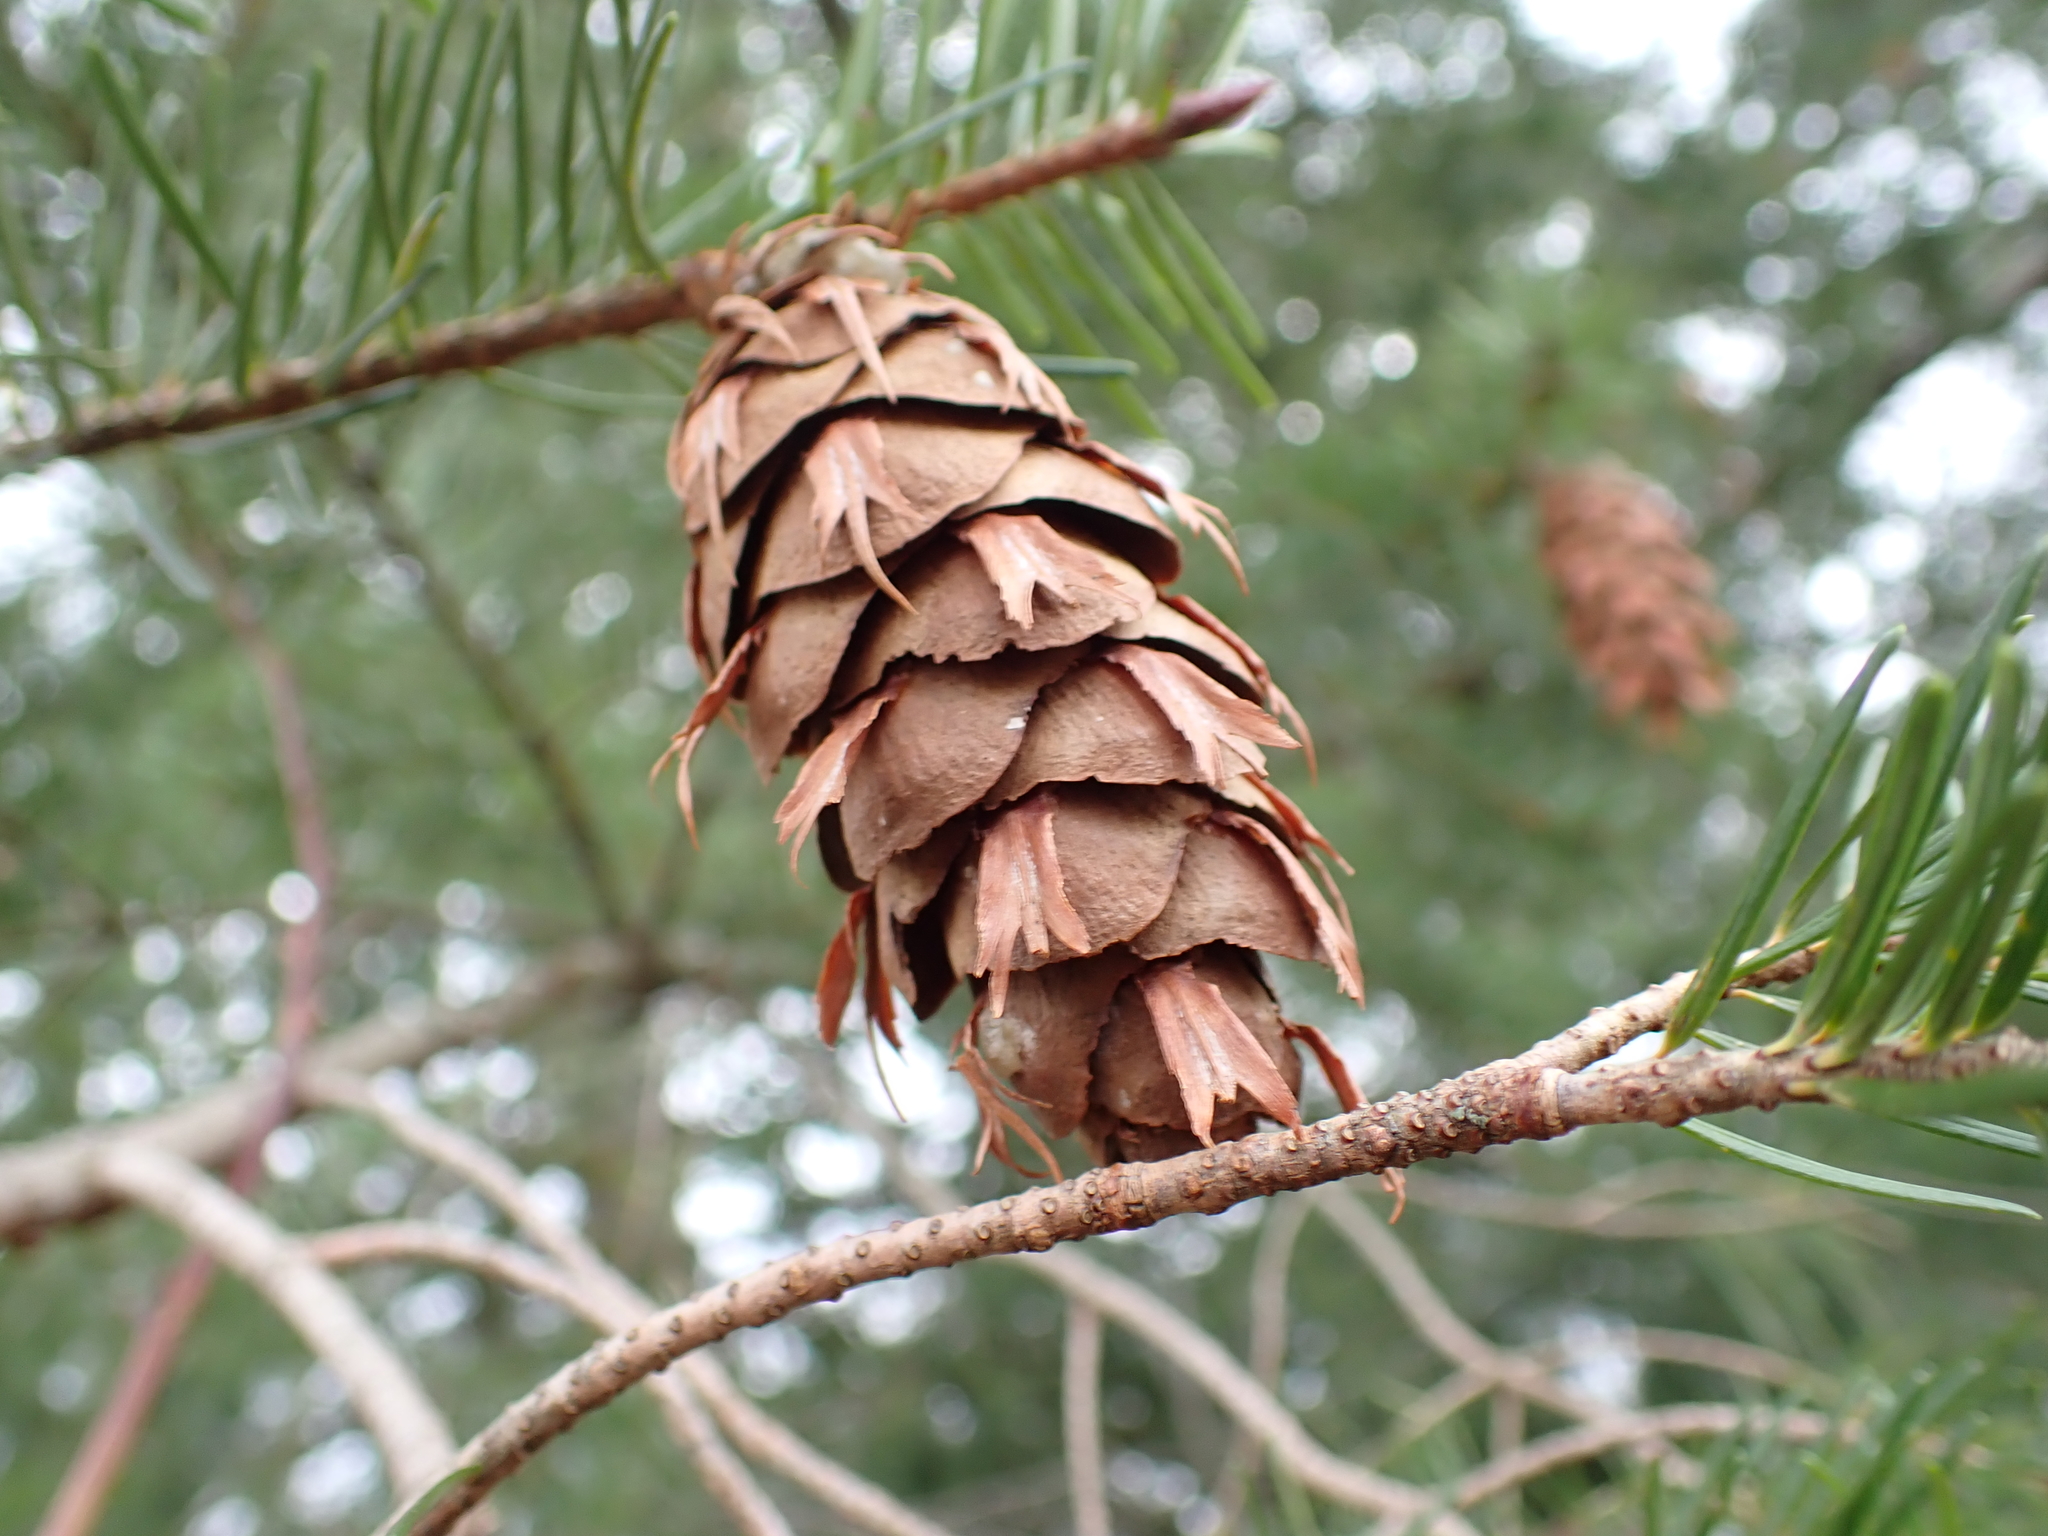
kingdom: Plantae
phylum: Tracheophyta
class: Pinopsida
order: Pinales
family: Pinaceae
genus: Pseudotsuga
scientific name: Pseudotsuga menziesii
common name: Douglas fir
